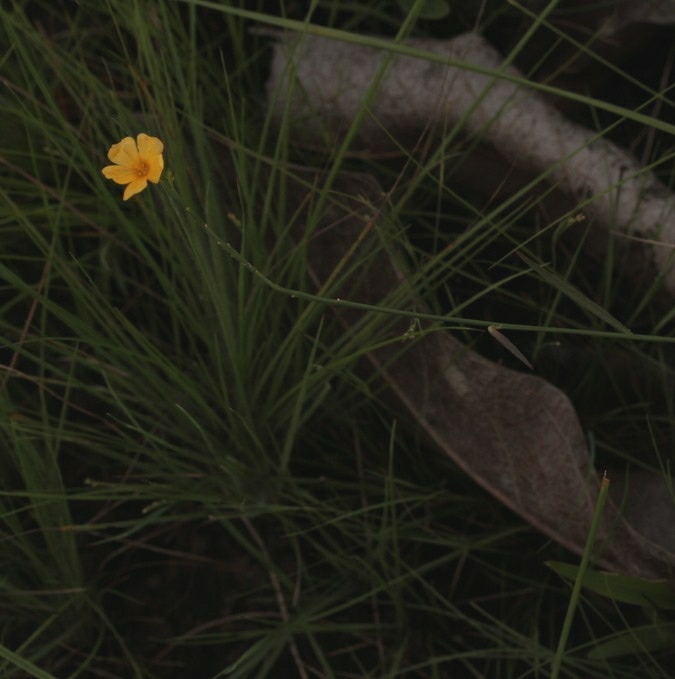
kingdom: Plantae
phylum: Tracheophyta
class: Magnoliopsida
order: Malpighiales
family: Turneraceae
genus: Turnera
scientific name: Turnera guianensis
